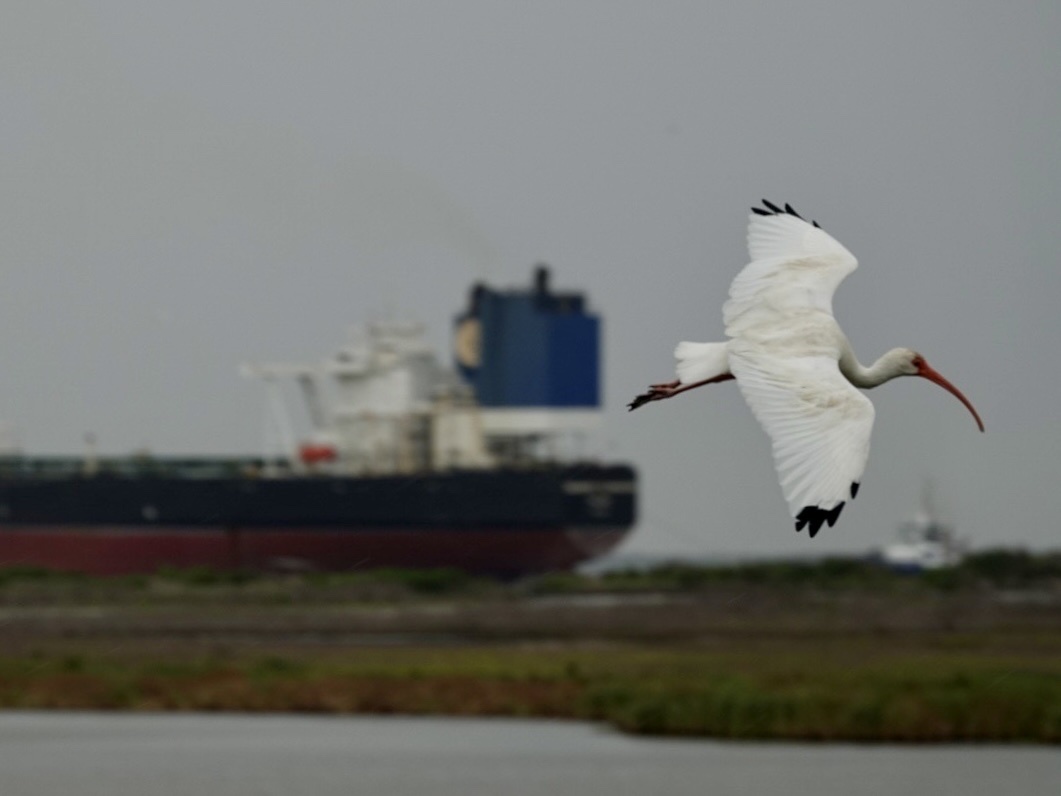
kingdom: Animalia
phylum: Chordata
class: Aves
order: Pelecaniformes
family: Threskiornithidae
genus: Eudocimus
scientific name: Eudocimus albus
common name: White ibis
